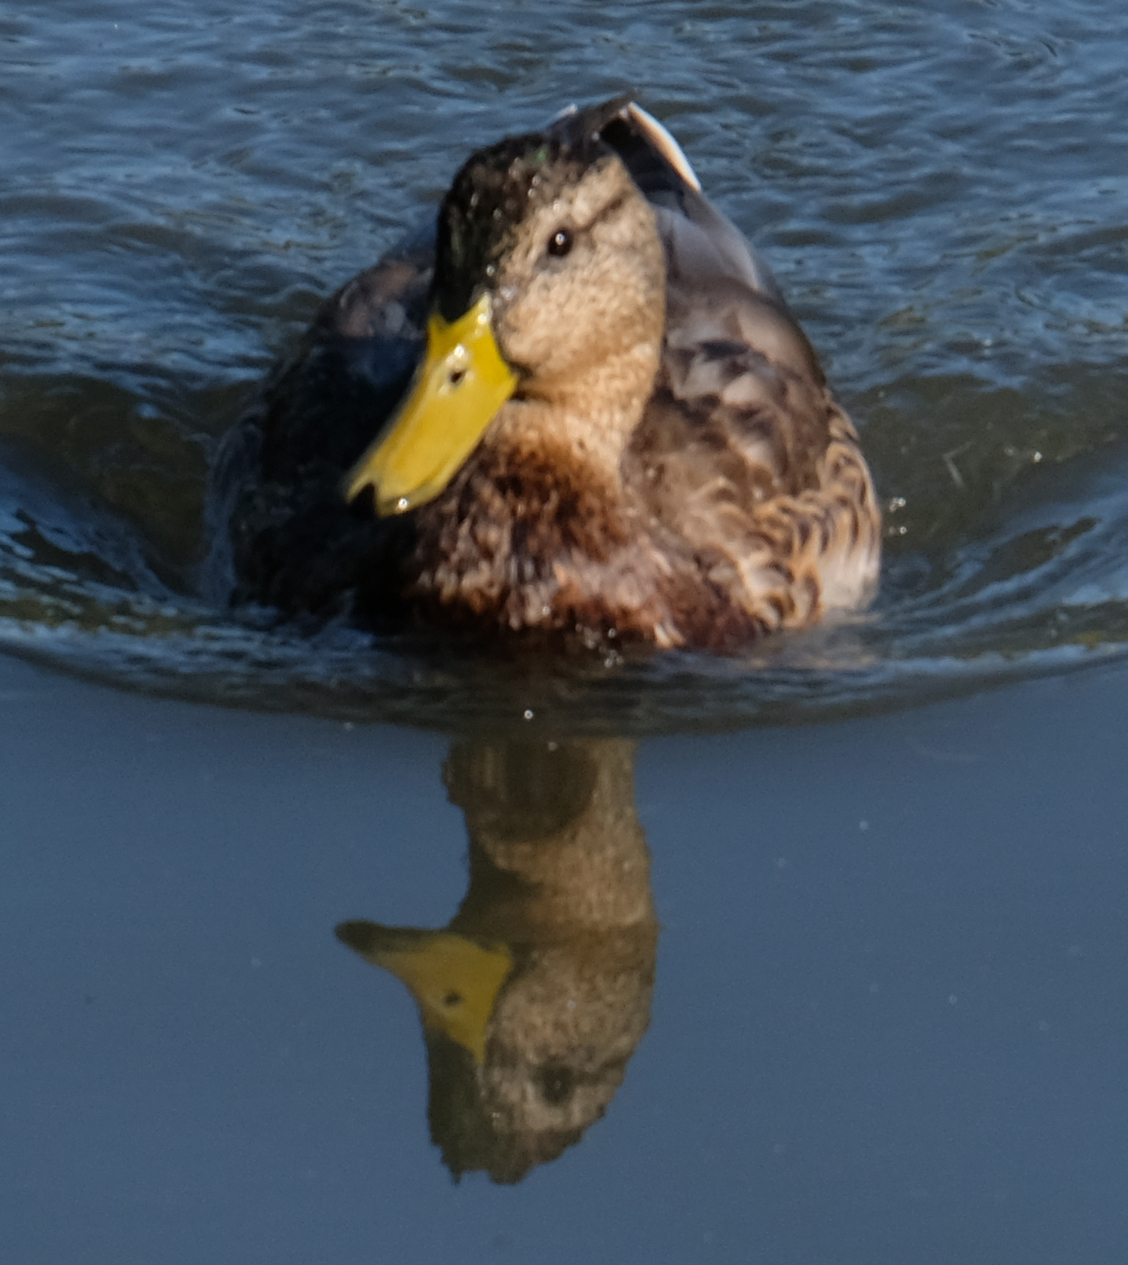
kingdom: Animalia
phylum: Chordata
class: Aves
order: Anseriformes
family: Anatidae
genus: Anas
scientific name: Anas platyrhynchos
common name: Mallard
